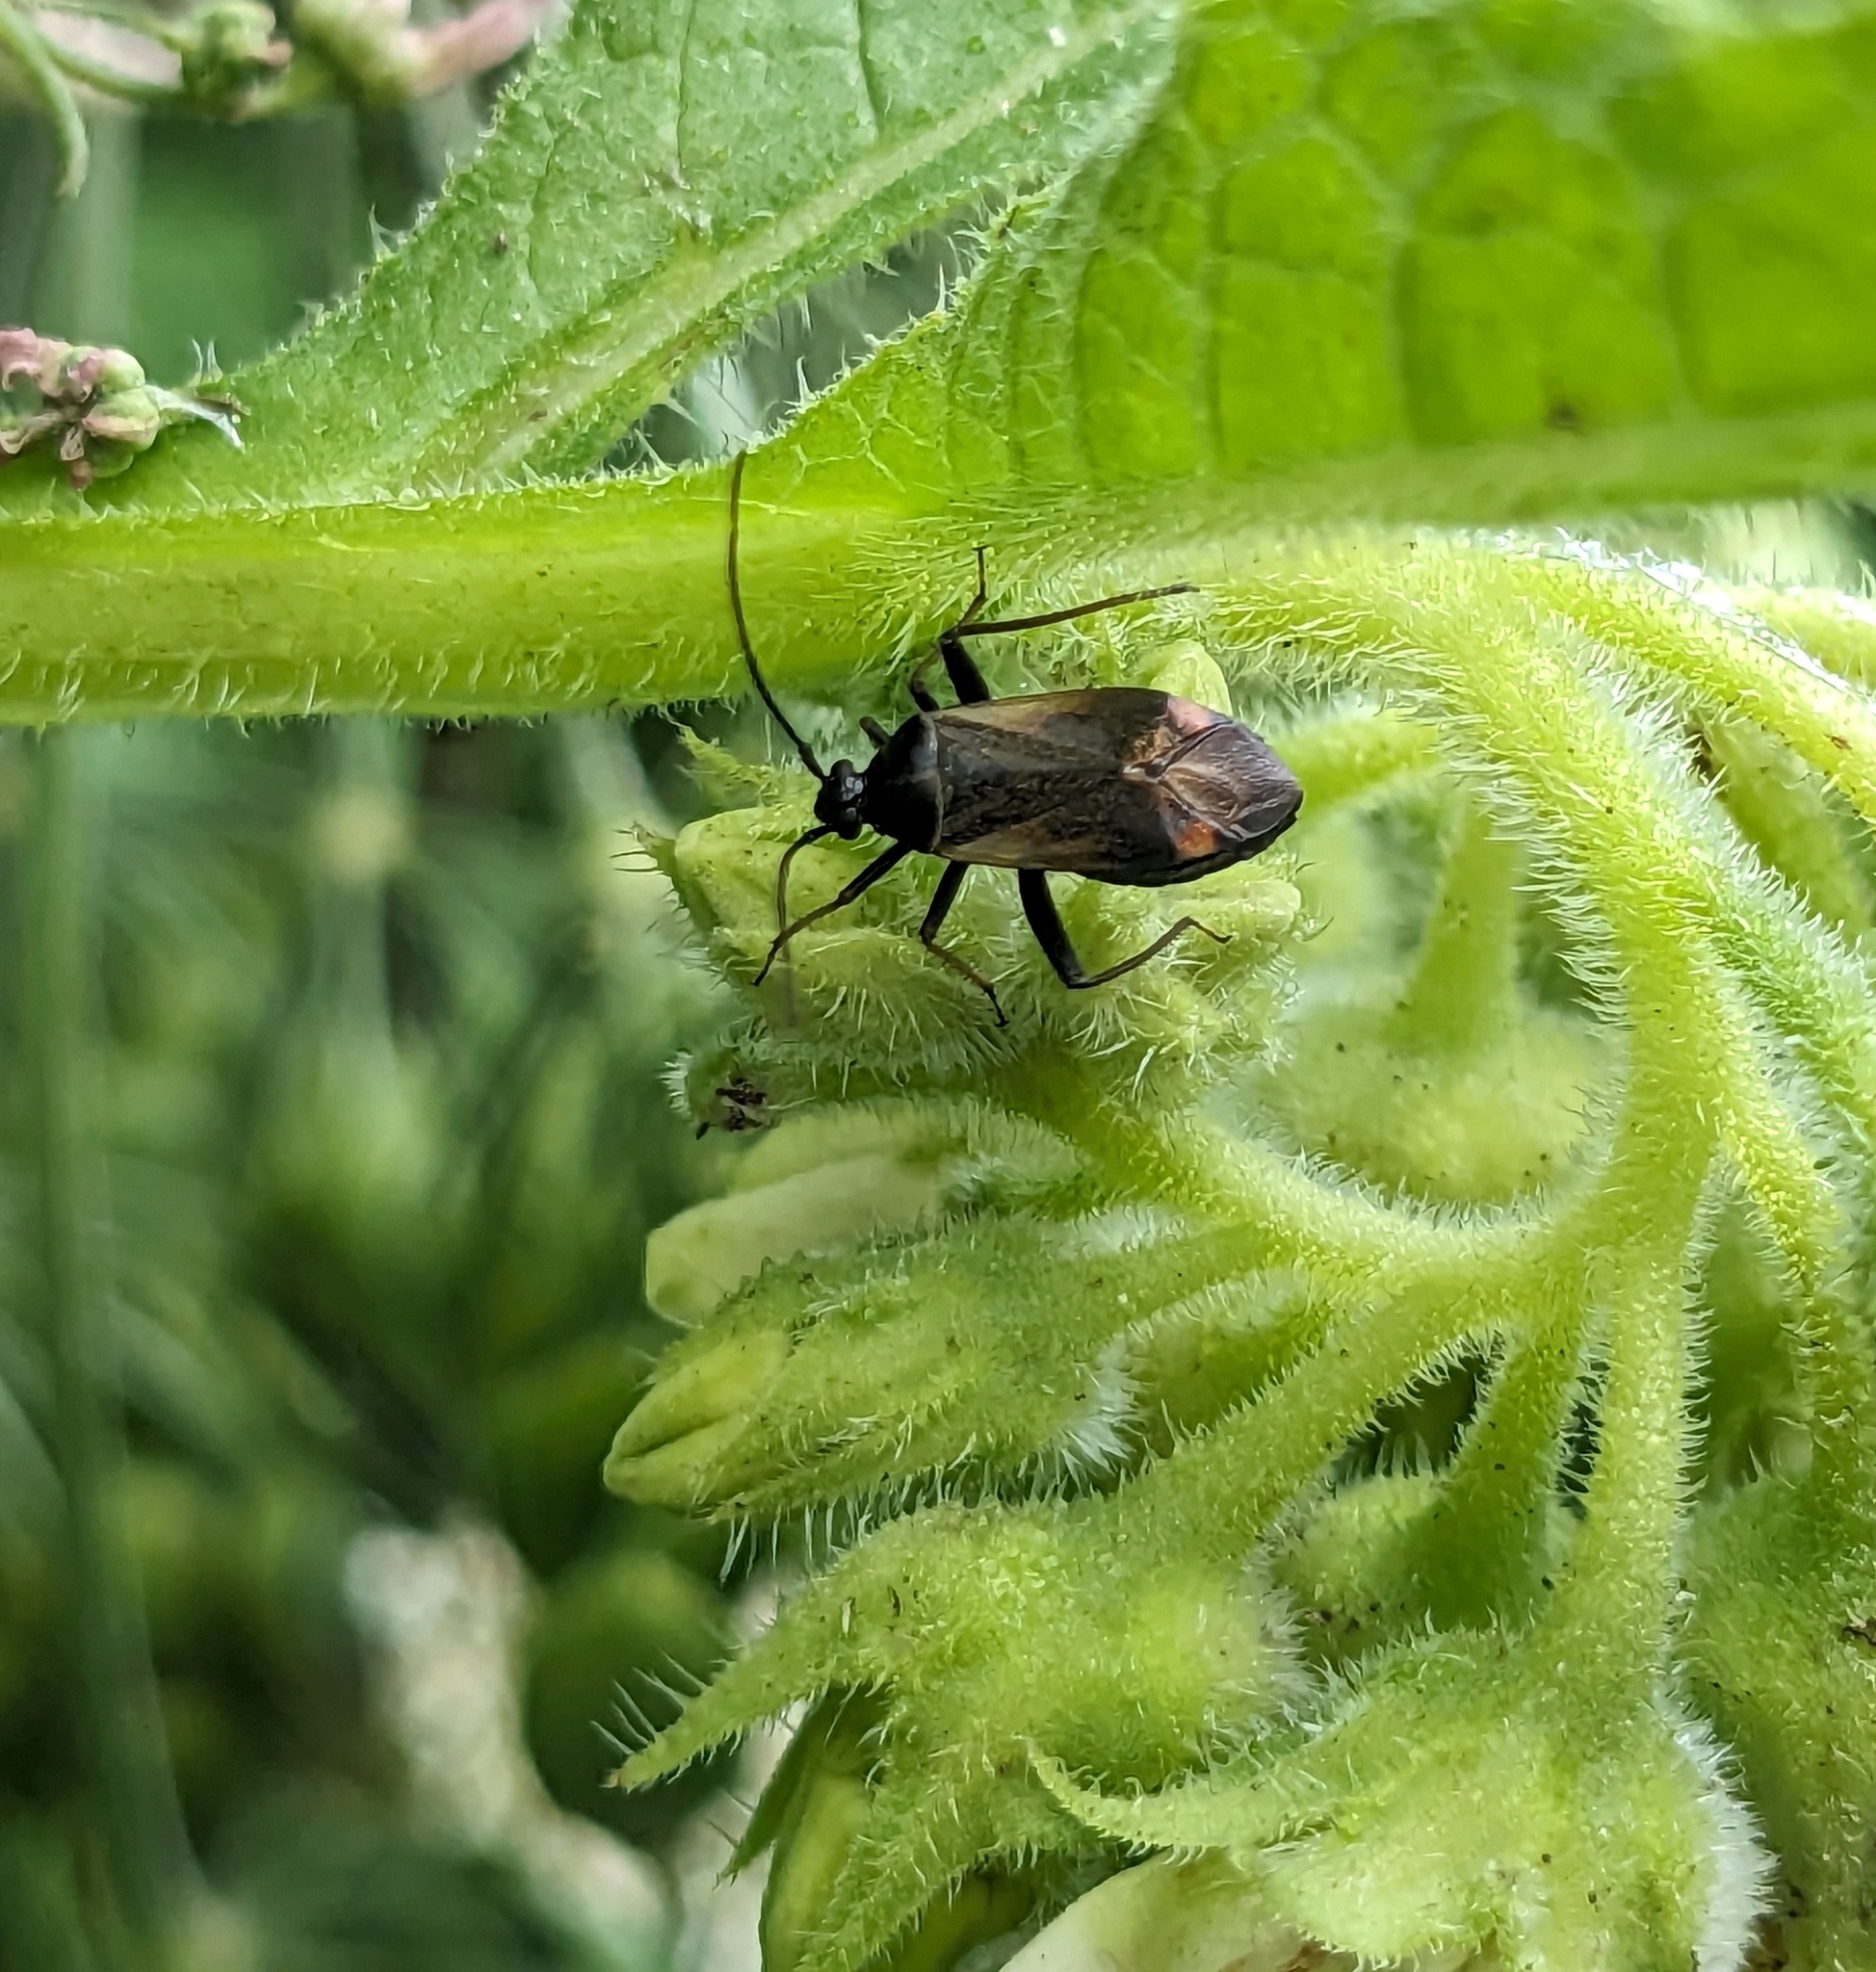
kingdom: Animalia
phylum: Arthropoda
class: Insecta
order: Hemiptera
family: Miridae
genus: Adelphocoris
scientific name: Adelphocoris seticornis
